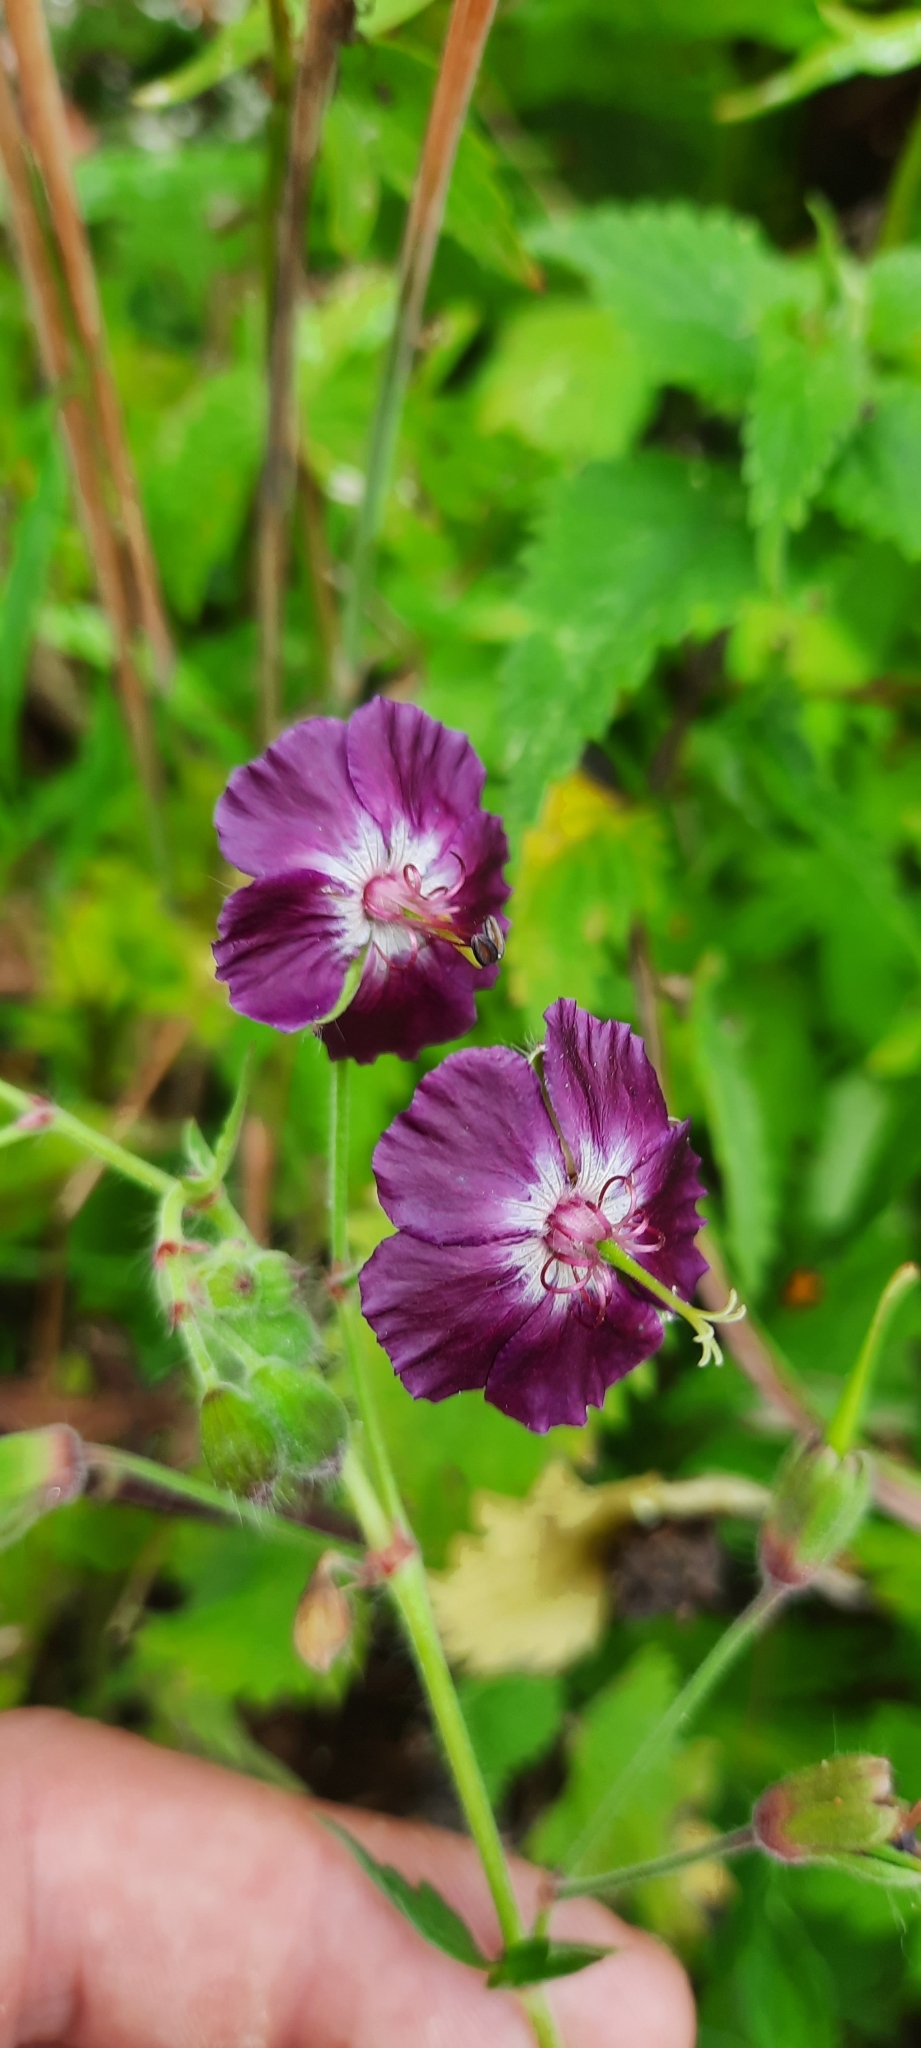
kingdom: Plantae
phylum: Tracheophyta
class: Magnoliopsida
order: Geraniales
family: Geraniaceae
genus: Geranium
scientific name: Geranium phaeum
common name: Dusky crane's-bill
